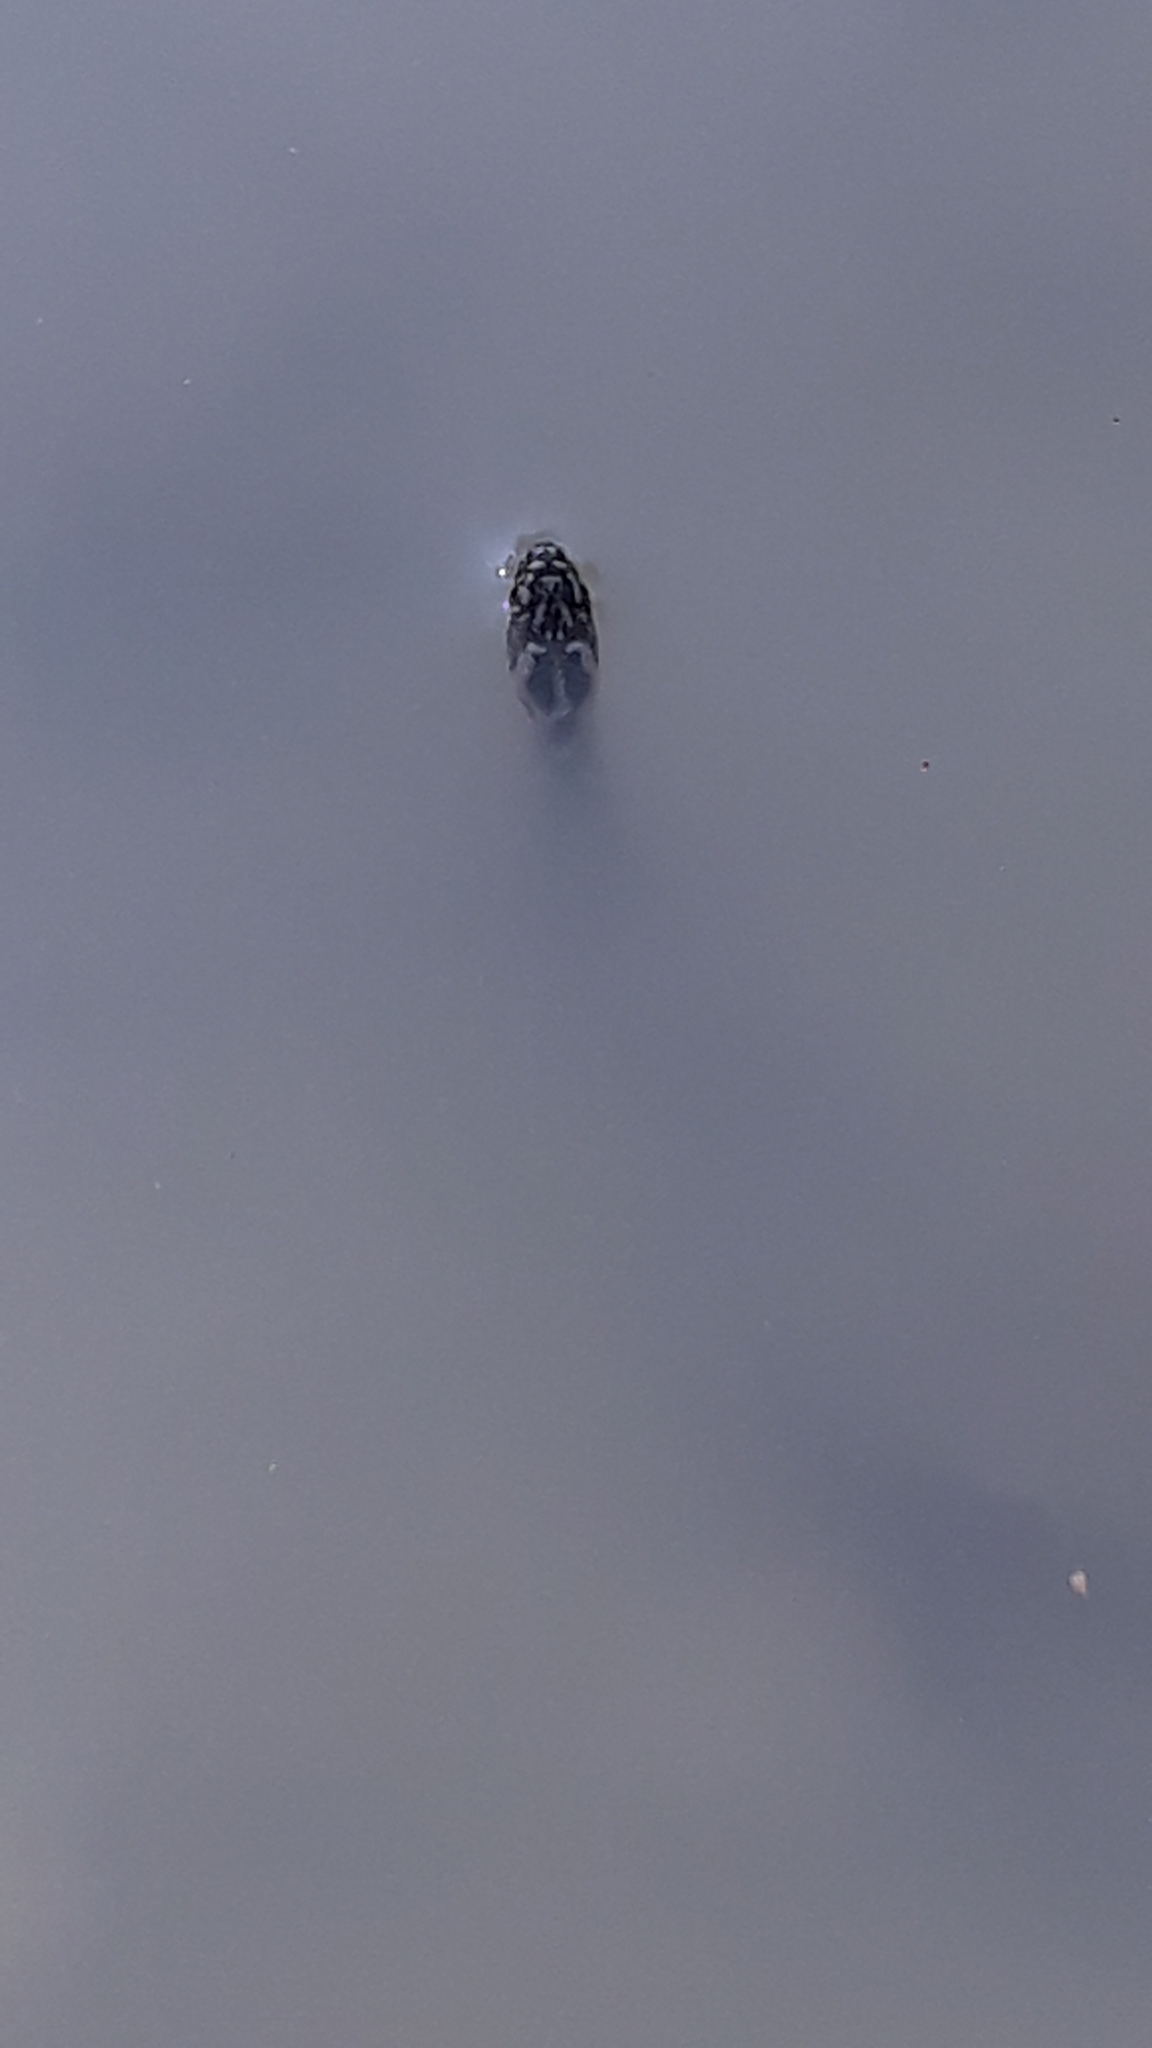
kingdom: Animalia
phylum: Chordata
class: Squamata
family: Colubridae
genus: Natrix
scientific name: Natrix maura
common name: Viperine water snake
